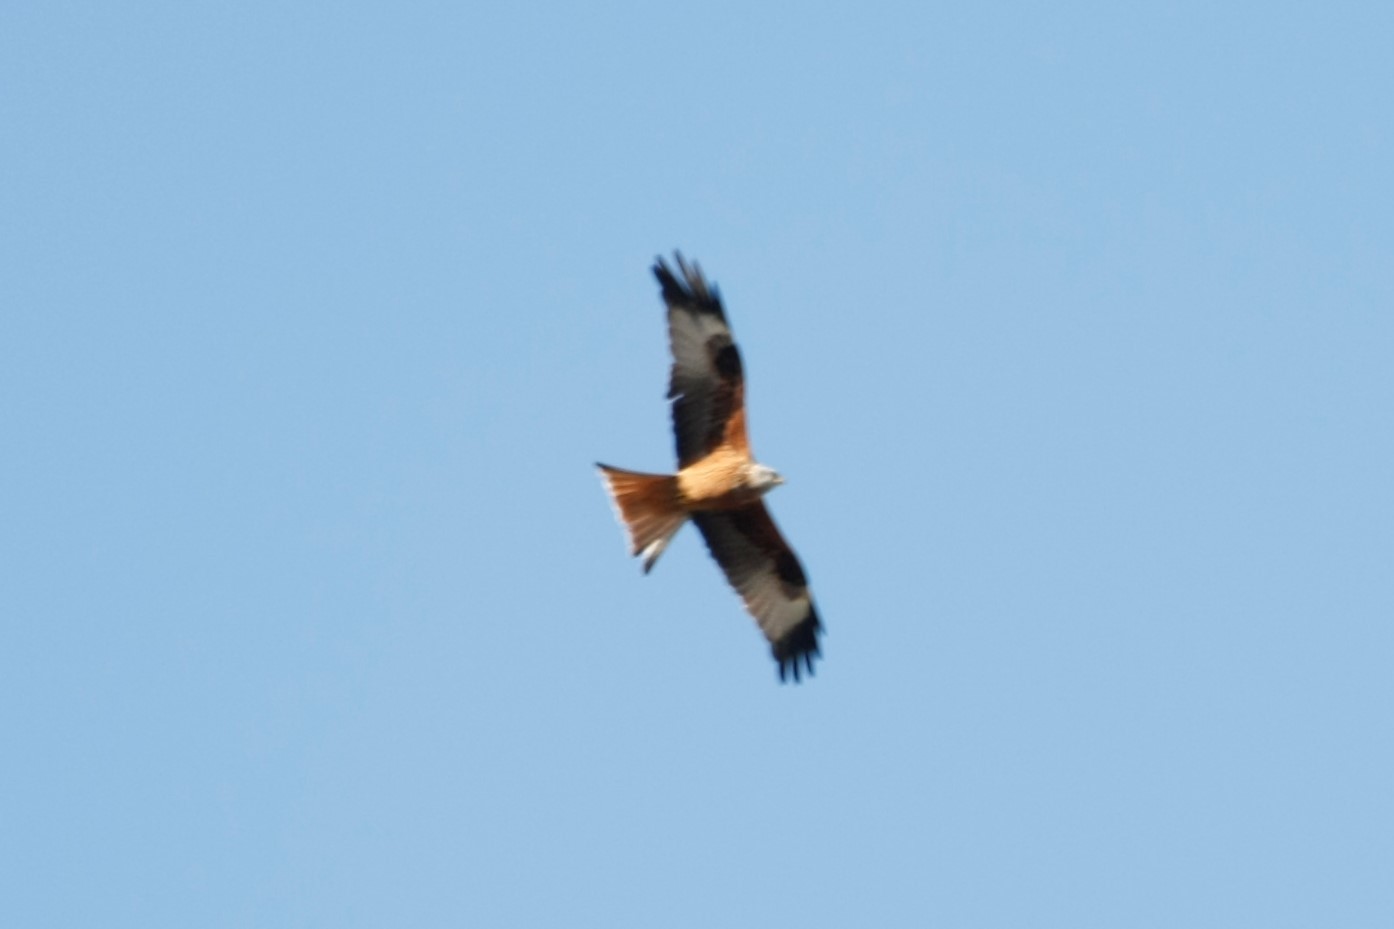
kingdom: Animalia
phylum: Chordata
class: Aves
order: Accipitriformes
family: Accipitridae
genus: Milvus
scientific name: Milvus milvus
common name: Red kite
